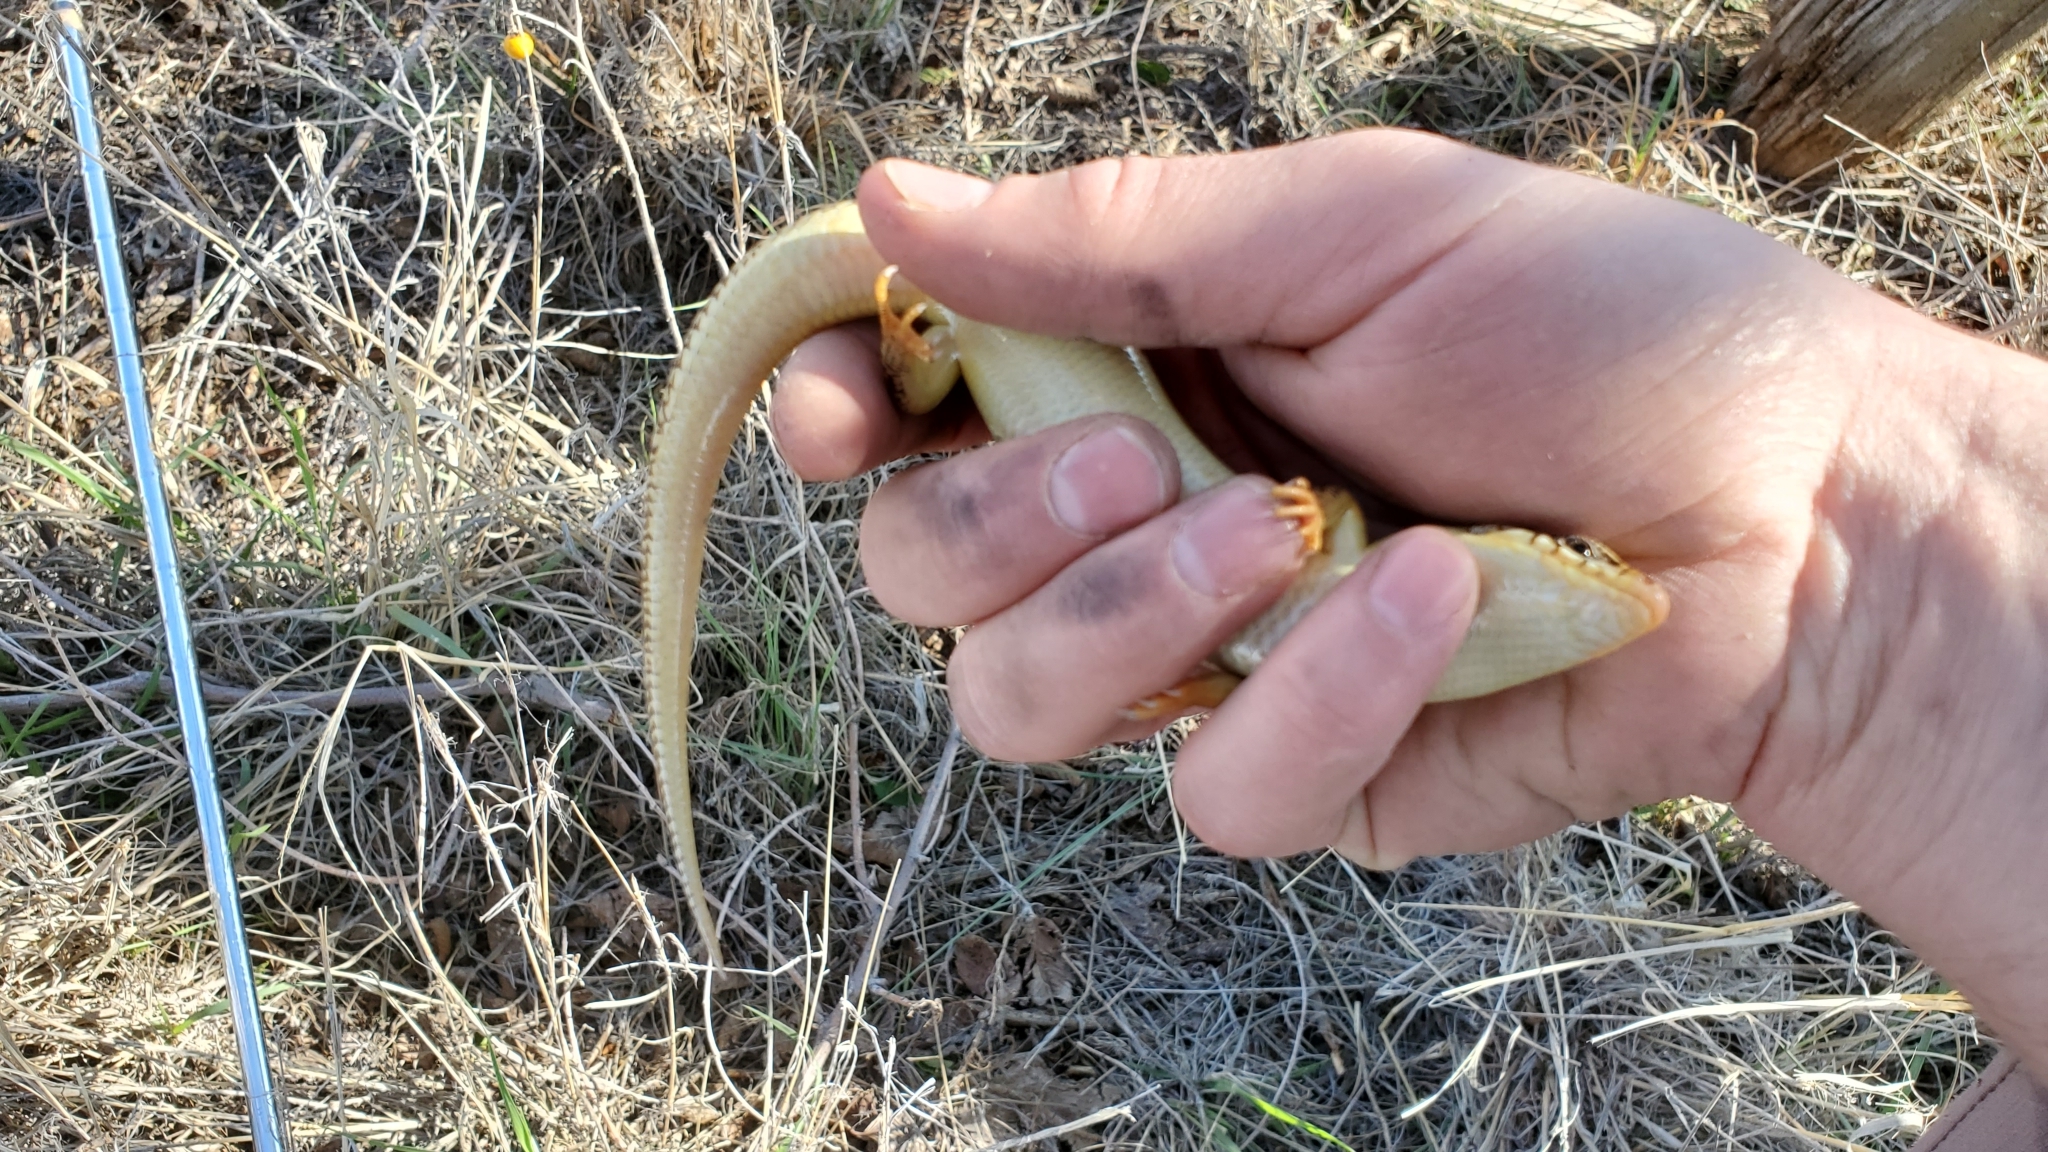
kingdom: Animalia
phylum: Chordata
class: Squamata
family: Scincidae
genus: Plestiodon
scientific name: Plestiodon obsoletus
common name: Great plains skink
